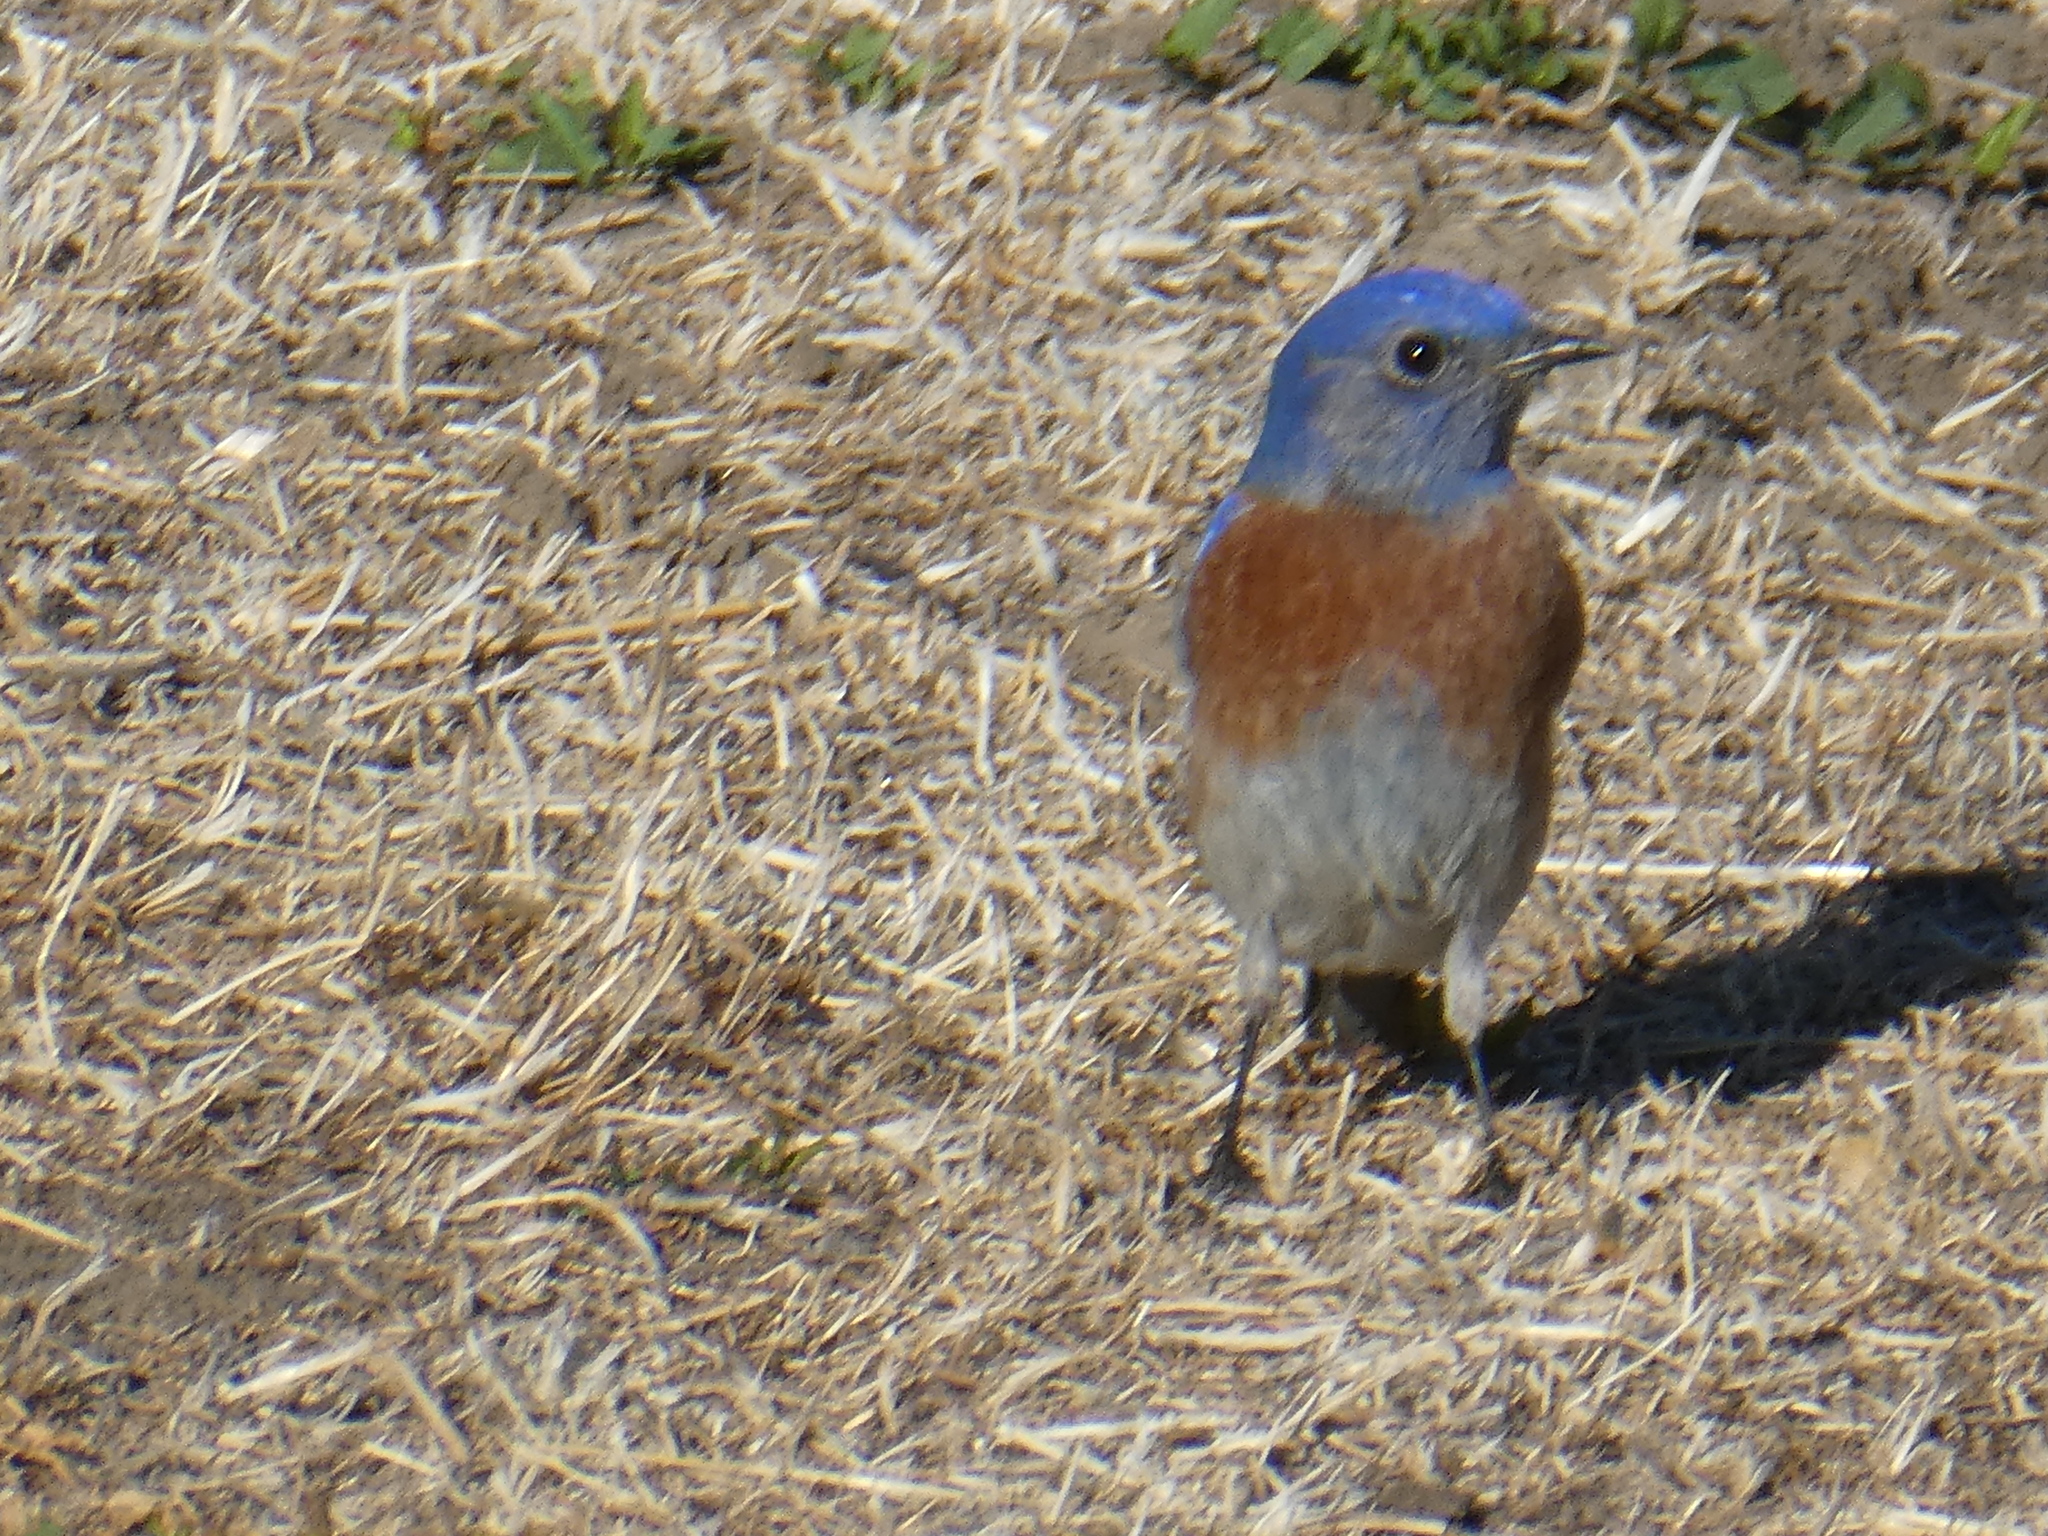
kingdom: Animalia
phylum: Chordata
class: Aves
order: Passeriformes
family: Turdidae
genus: Sialia
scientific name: Sialia mexicana
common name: Western bluebird
